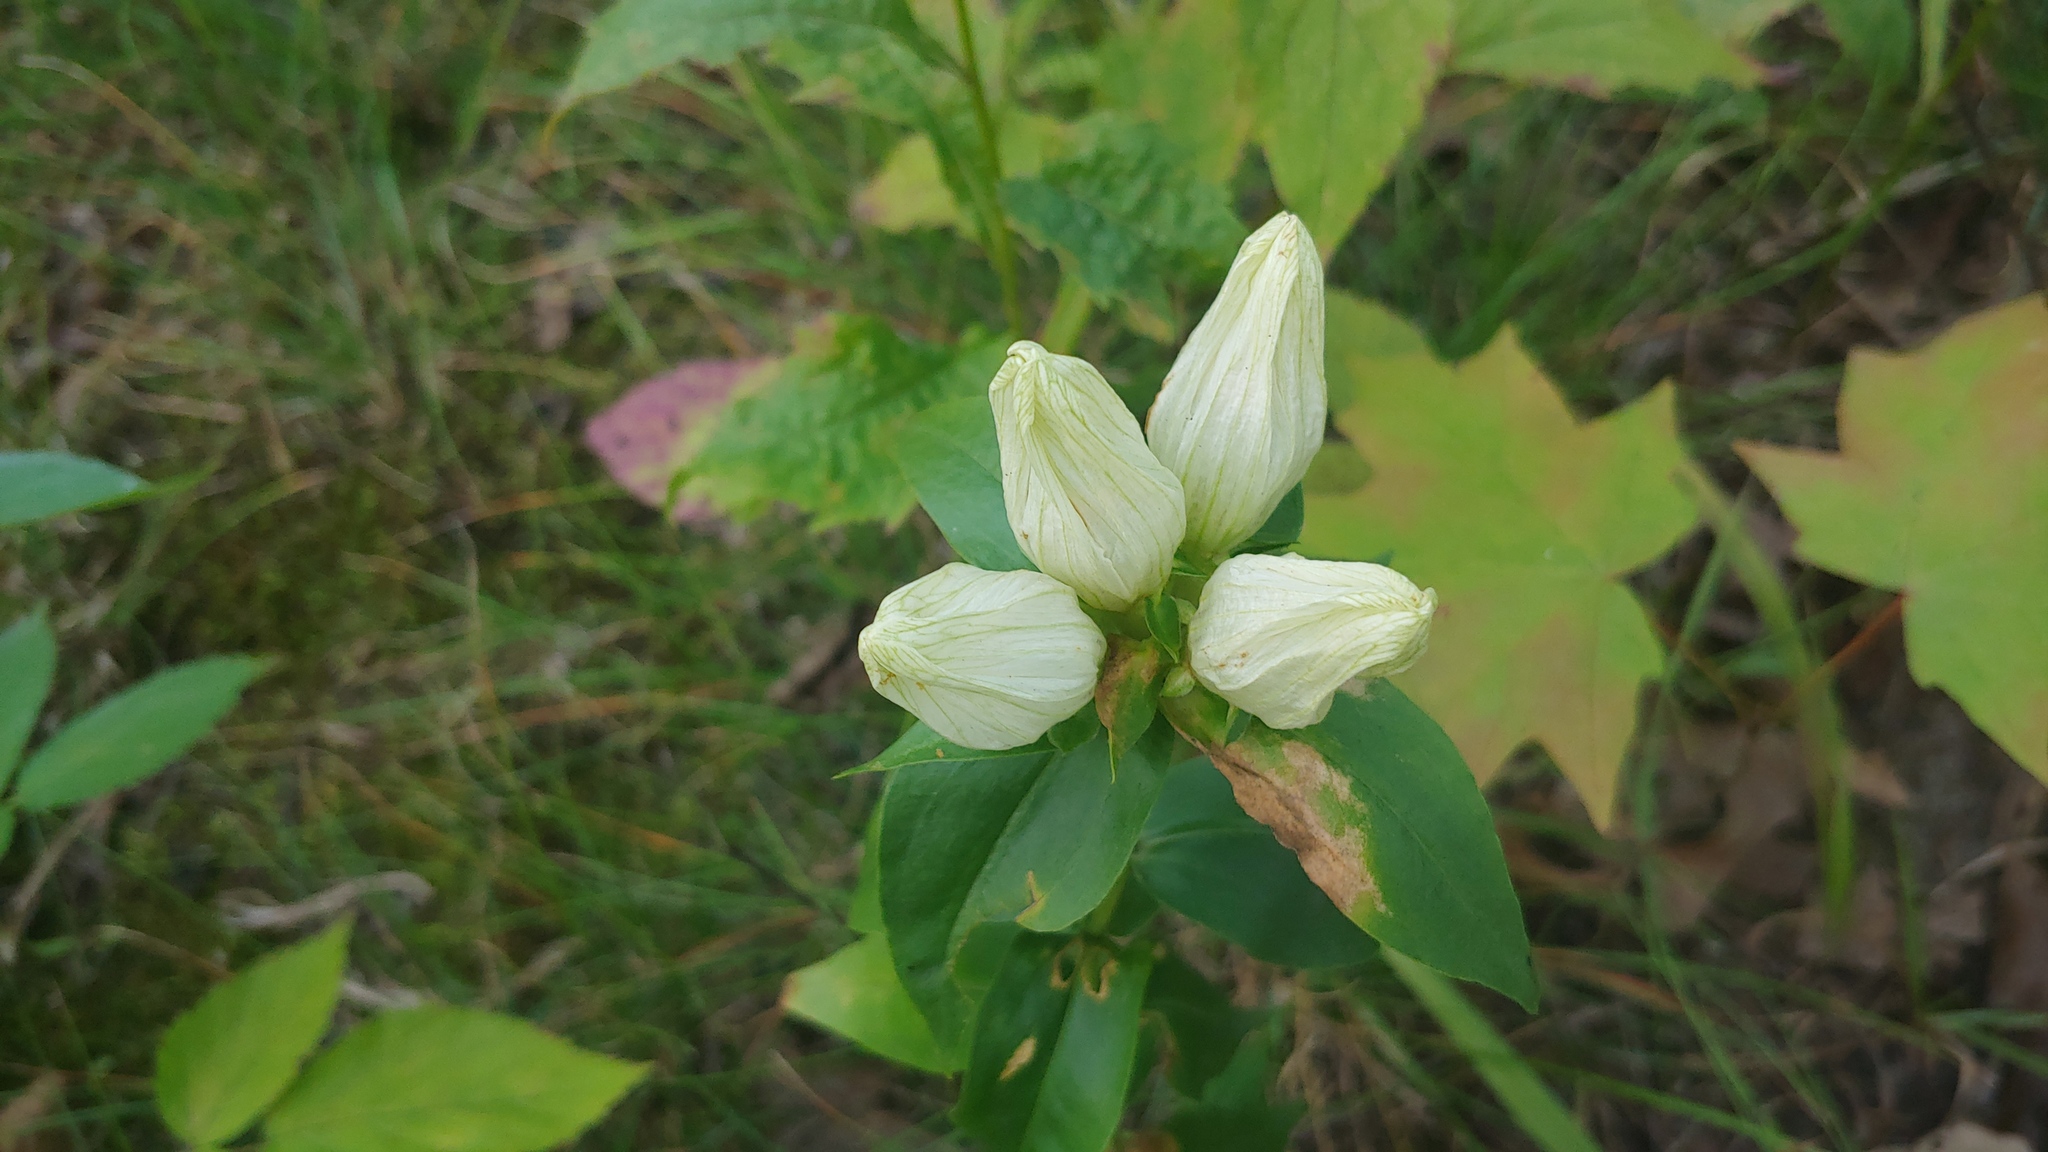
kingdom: Plantae
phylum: Tracheophyta
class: Magnoliopsida
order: Gentianales
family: Gentianaceae
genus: Gentiana
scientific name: Gentiana alba
